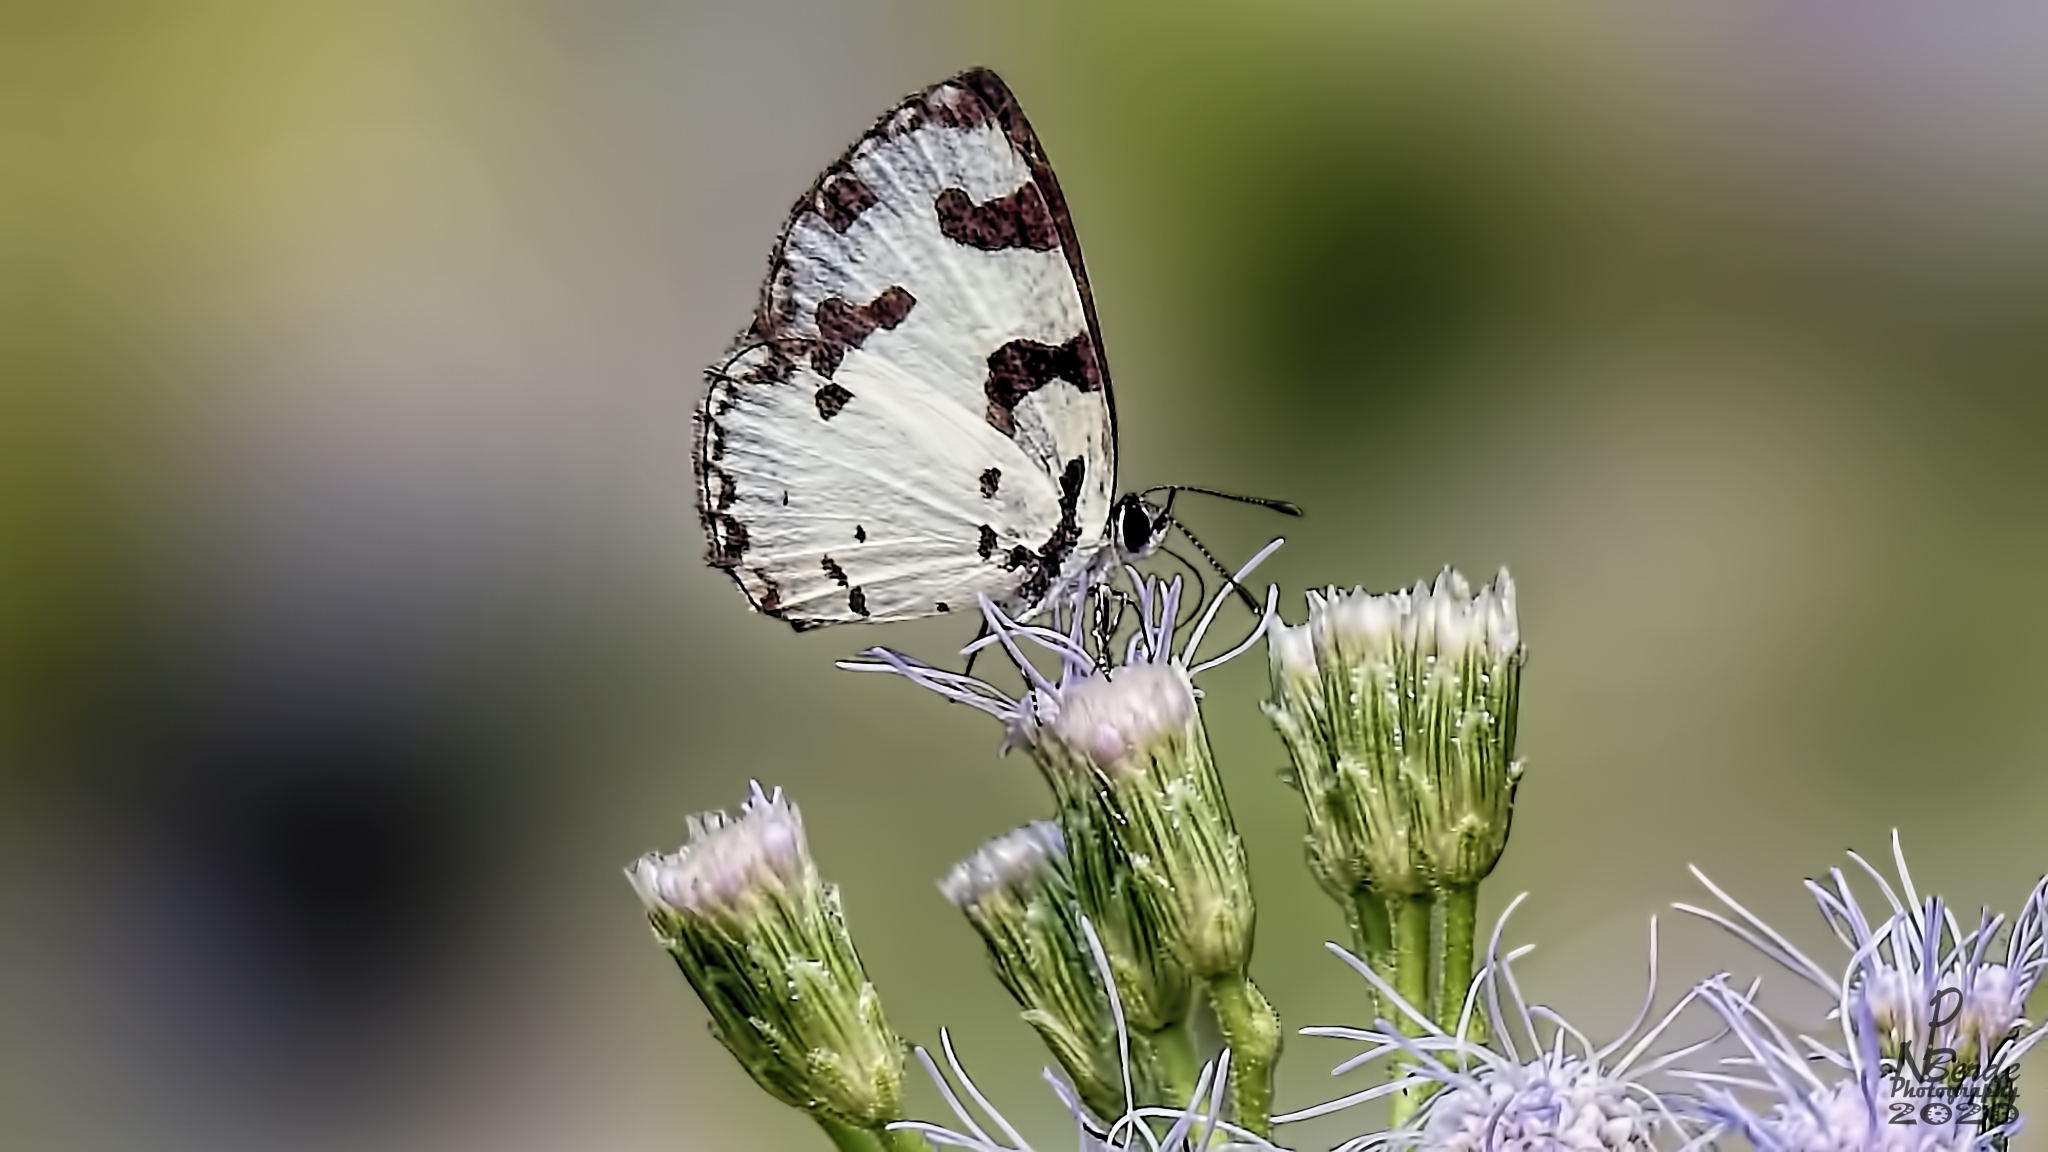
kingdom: Animalia
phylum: Arthropoda
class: Insecta
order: Lepidoptera
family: Lycaenidae
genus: Caleta
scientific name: Caleta decidia
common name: Angled pierrot
